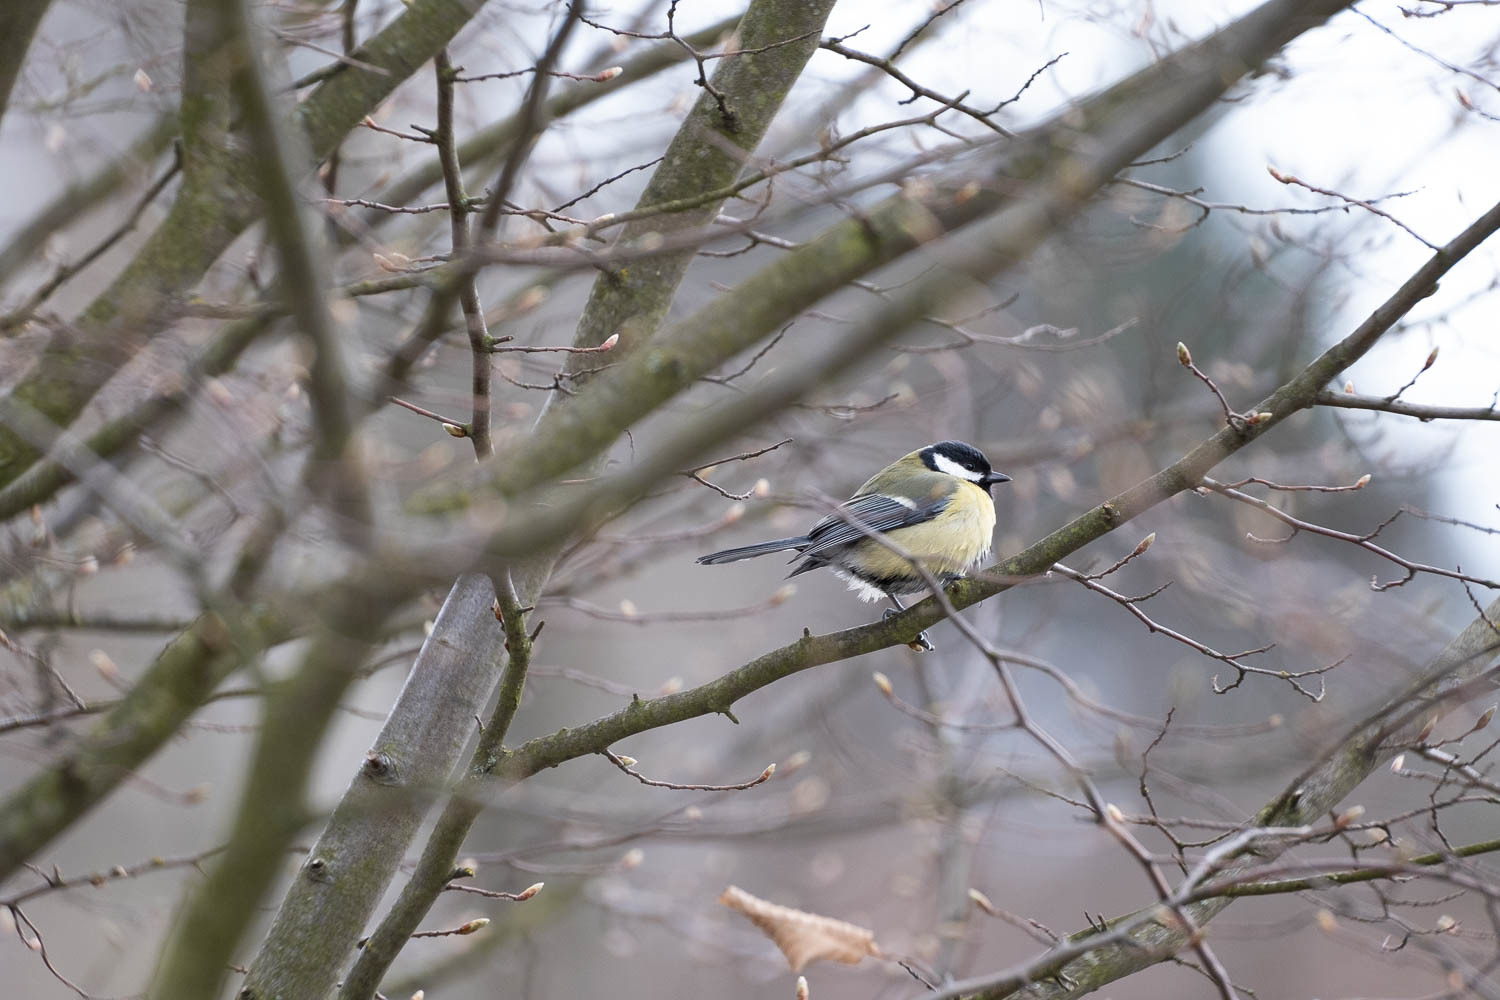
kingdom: Animalia
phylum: Chordata
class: Aves
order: Passeriformes
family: Paridae
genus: Parus
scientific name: Parus major
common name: Great tit
